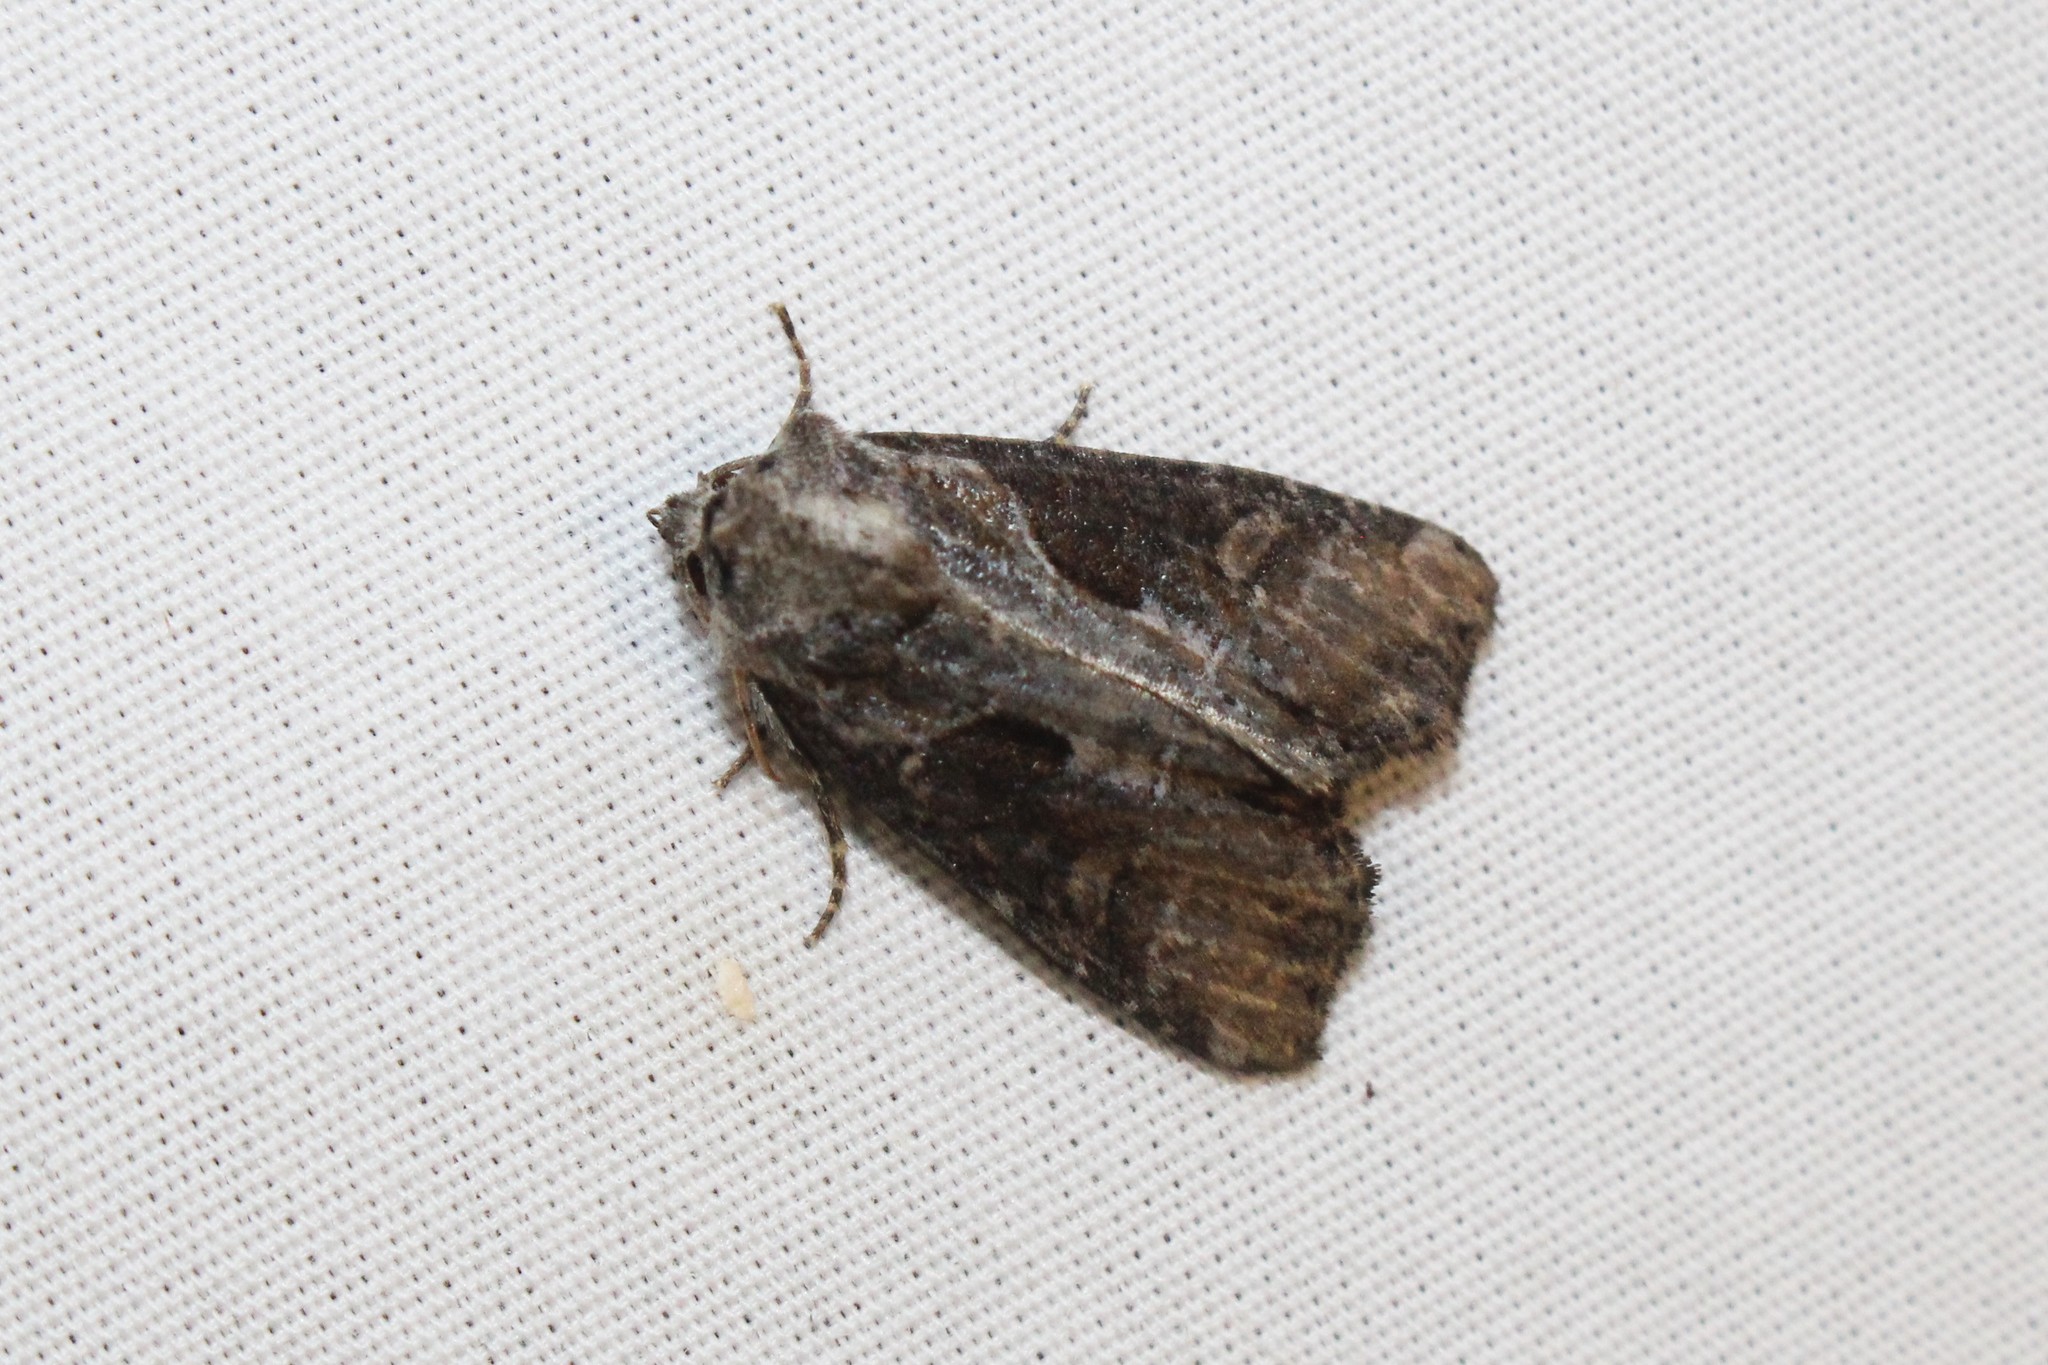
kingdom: Animalia
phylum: Arthropoda
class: Insecta
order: Lepidoptera
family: Noctuidae
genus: Lateroligia
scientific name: Lateroligia ophiogramma
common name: Double lobed
